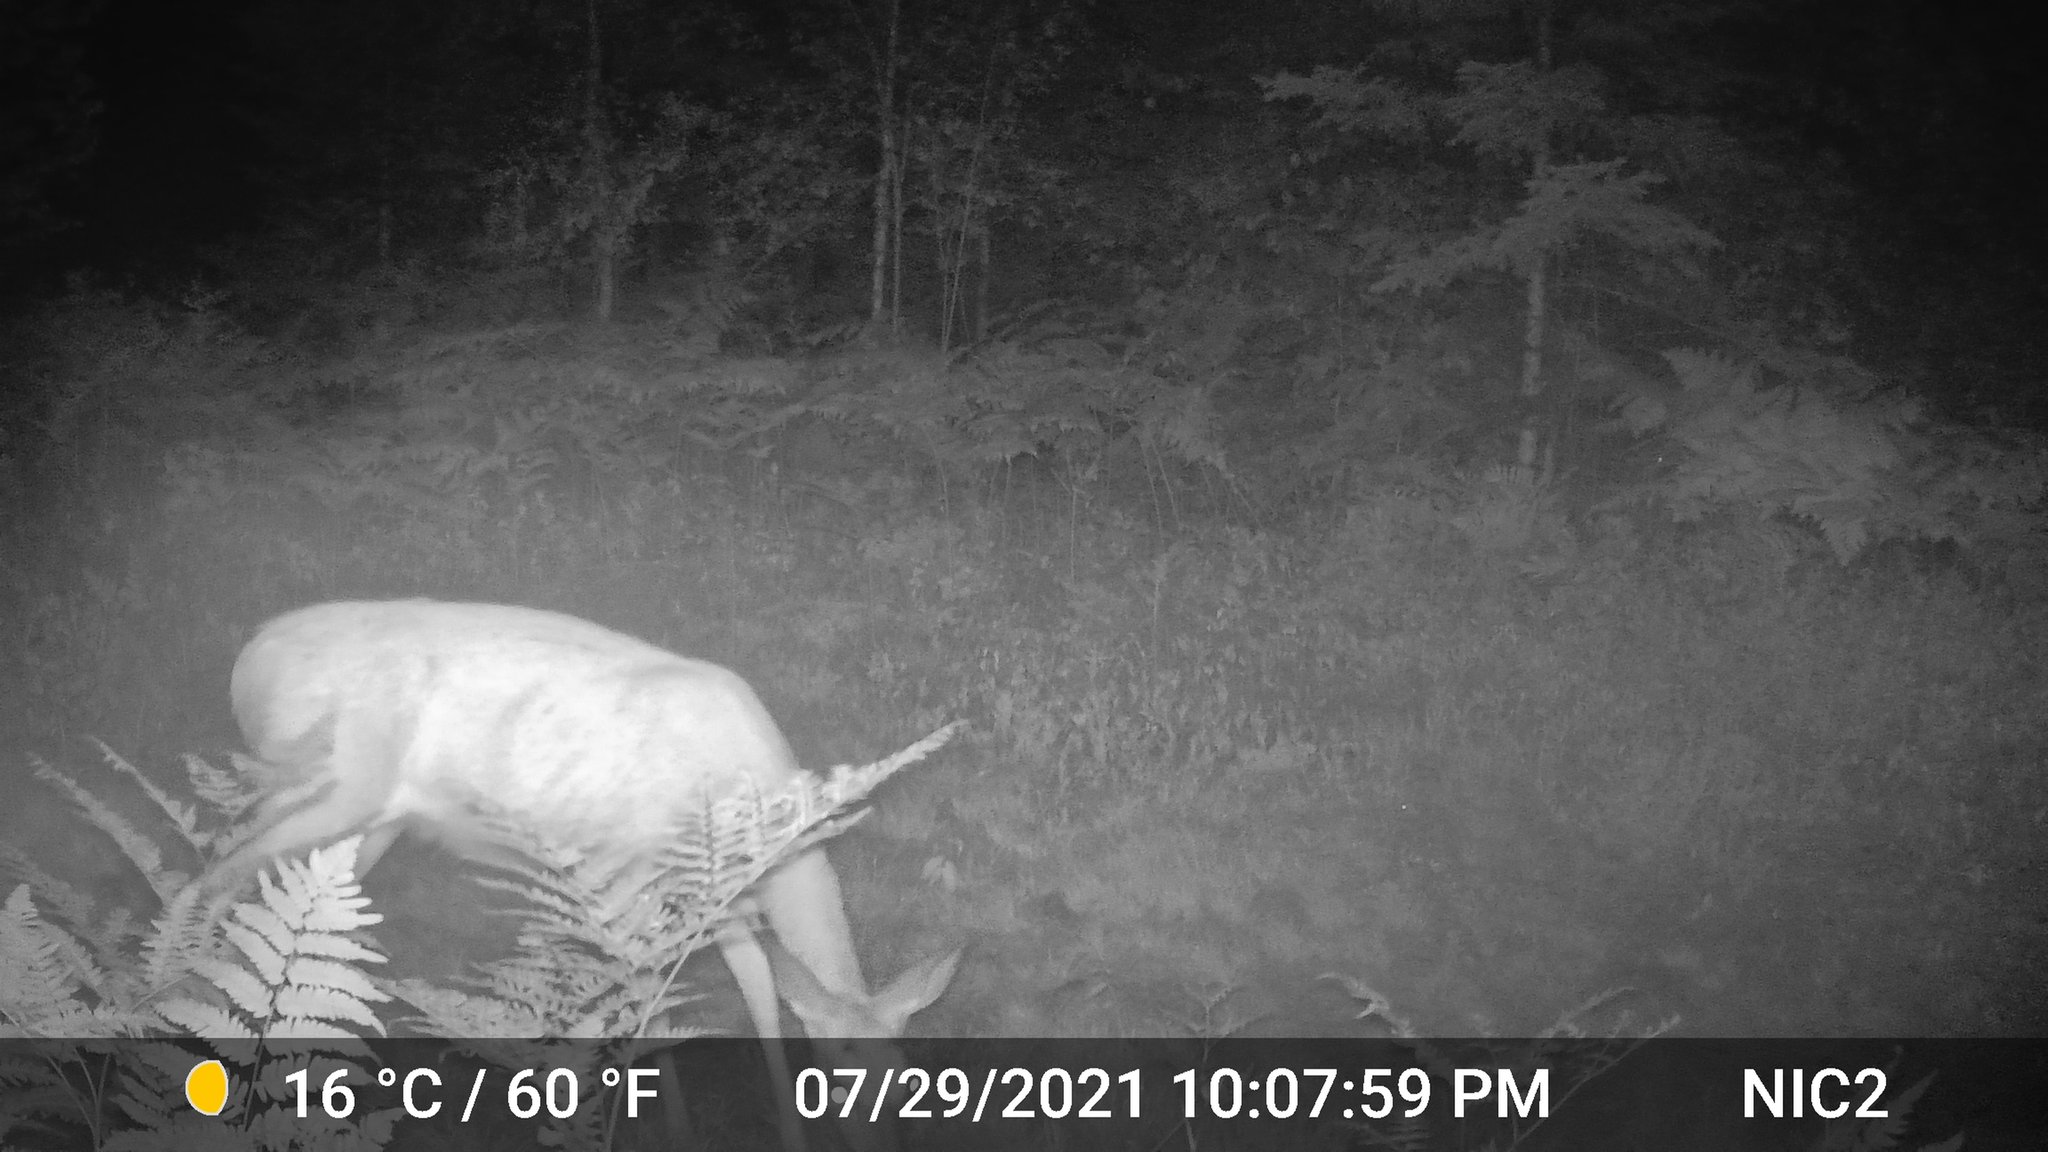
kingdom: Animalia
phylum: Chordata
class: Mammalia
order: Artiodactyla
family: Cervidae
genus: Odocoileus
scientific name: Odocoileus virginianus
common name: White-tailed deer
